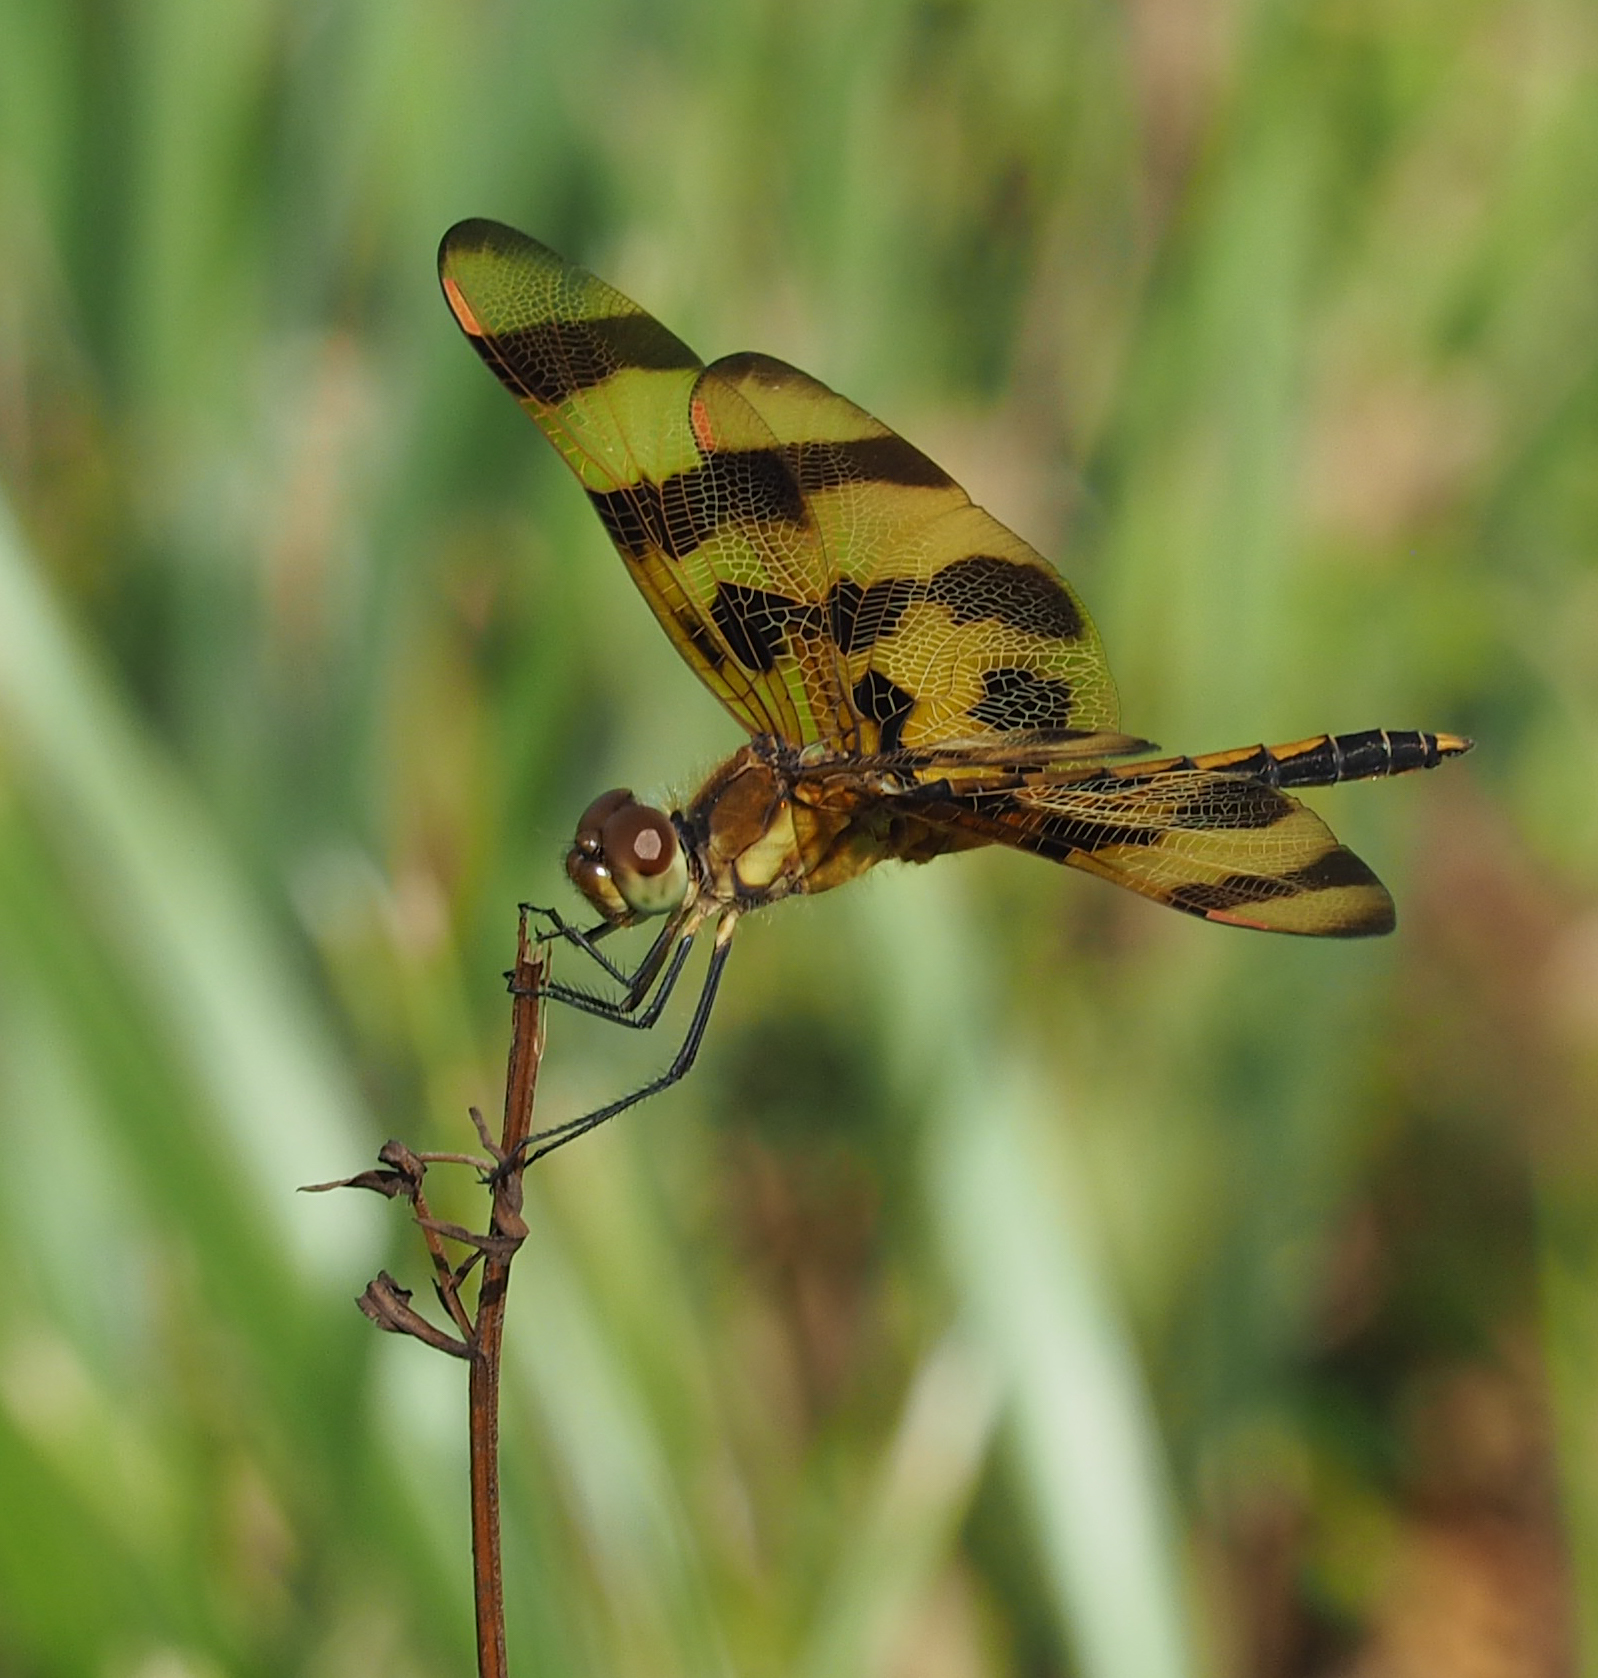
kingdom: Animalia
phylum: Arthropoda
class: Insecta
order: Odonata
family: Libellulidae
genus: Celithemis
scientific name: Celithemis eponina
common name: Halloween pennant
